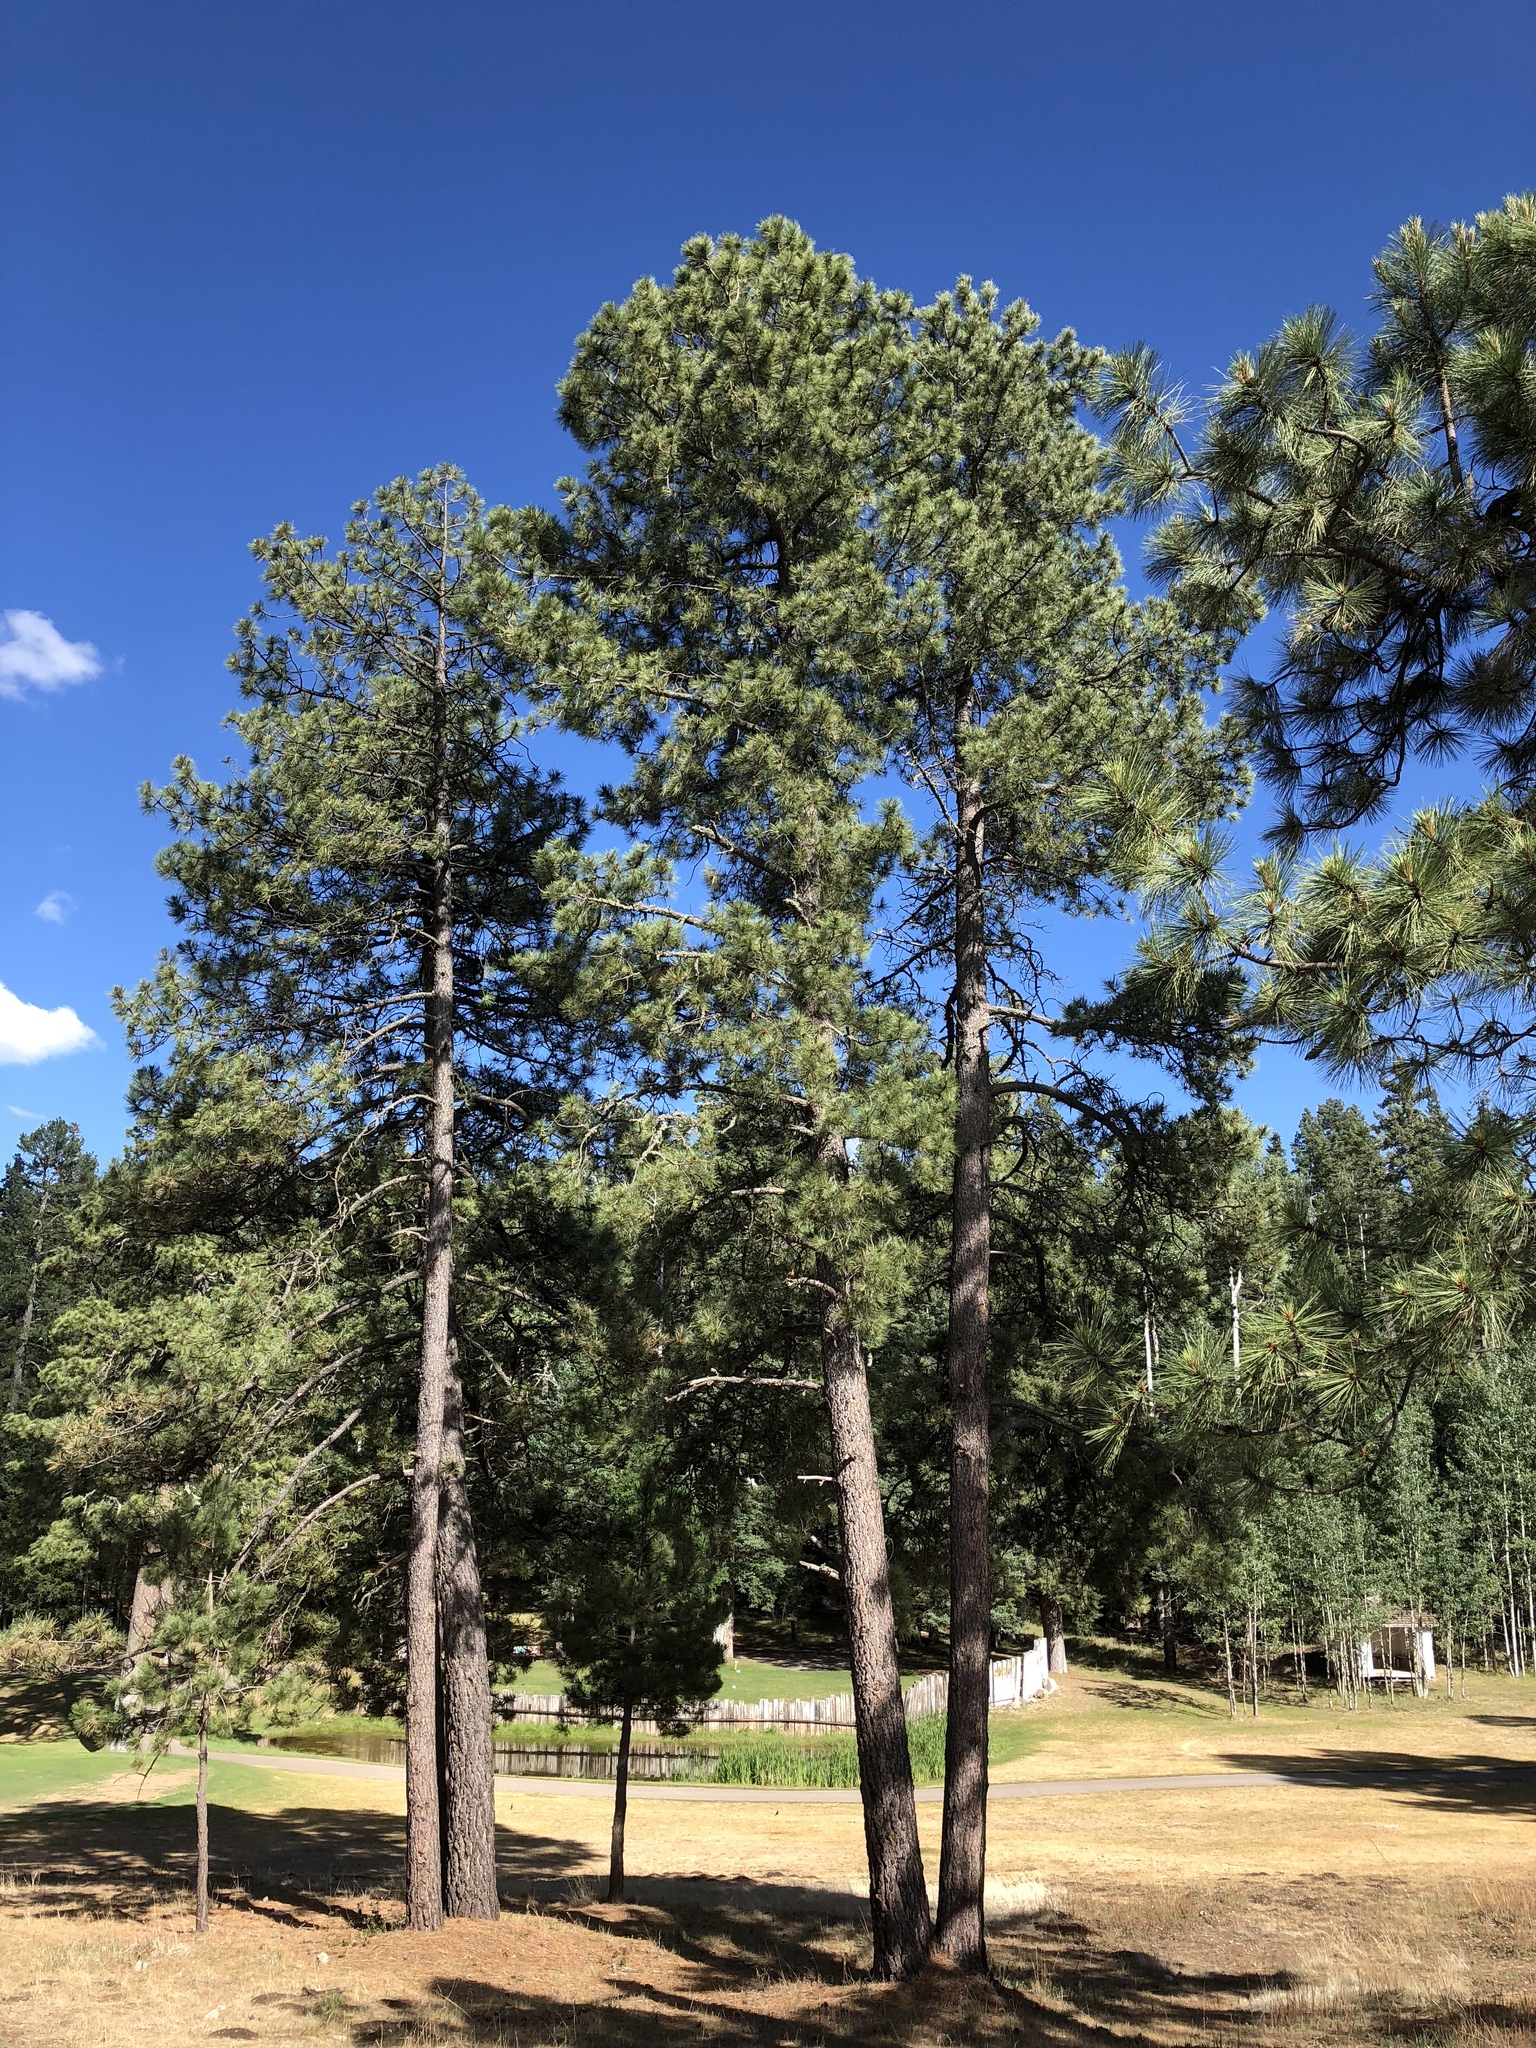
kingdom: Plantae
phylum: Tracheophyta
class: Pinopsida
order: Pinales
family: Pinaceae
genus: Pinus
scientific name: Pinus ponderosa
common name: Western yellow-pine
